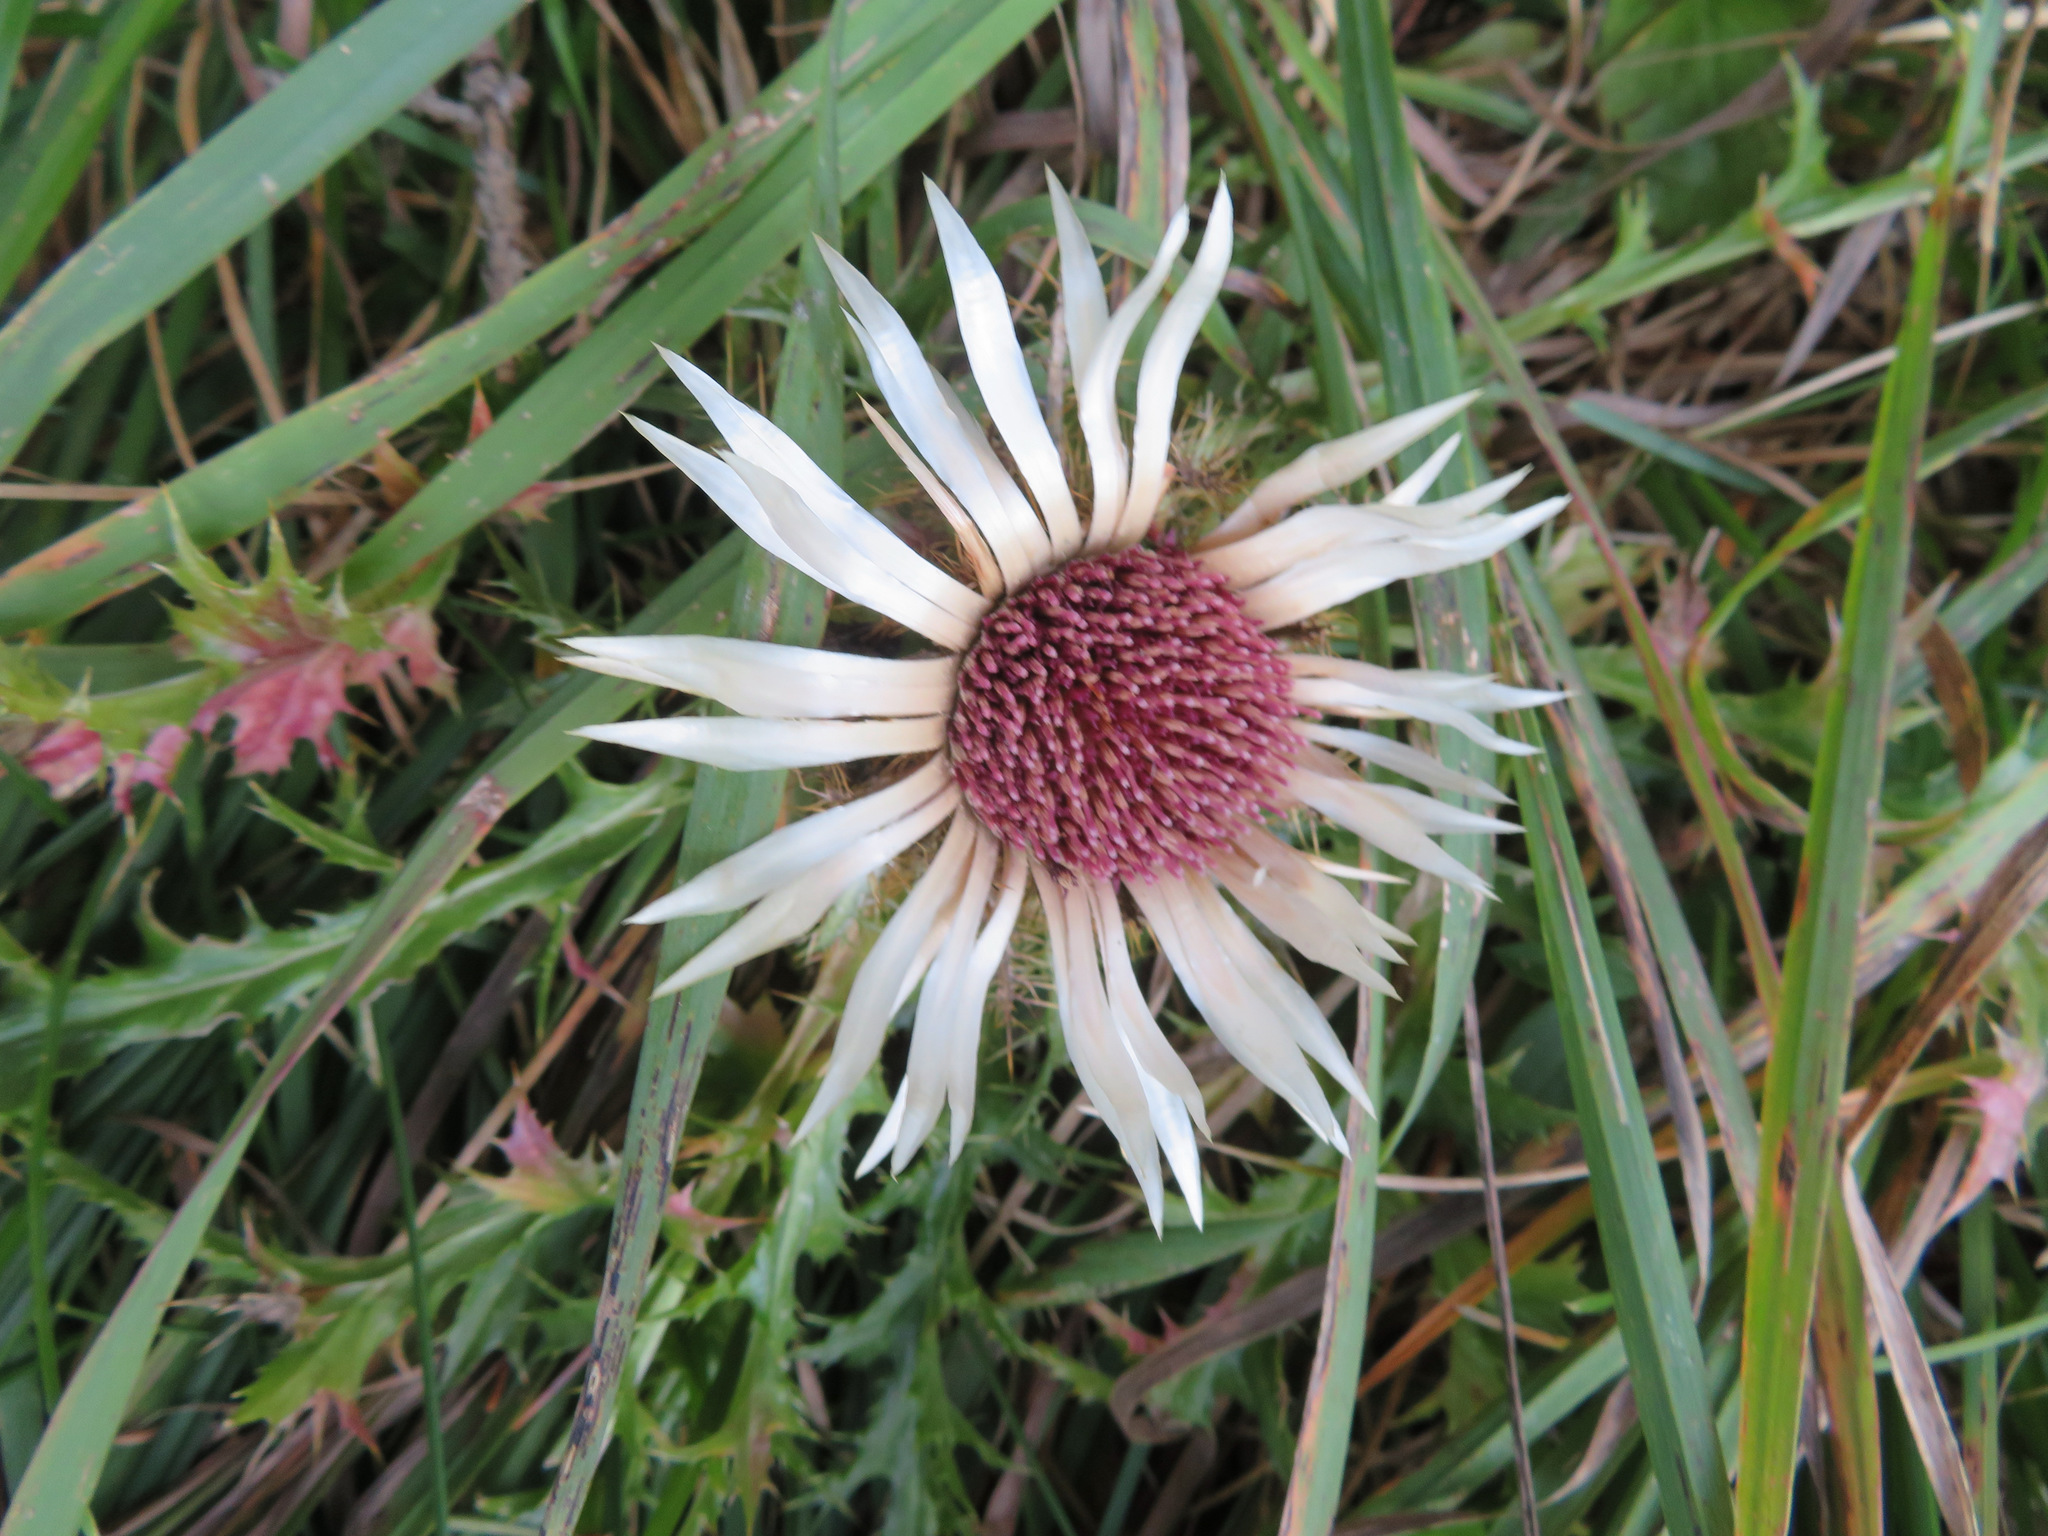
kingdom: Plantae
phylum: Tracheophyta
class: Magnoliopsida
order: Asterales
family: Asteraceae
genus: Carlina
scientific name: Carlina acaulis
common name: Stemless carline thistle
